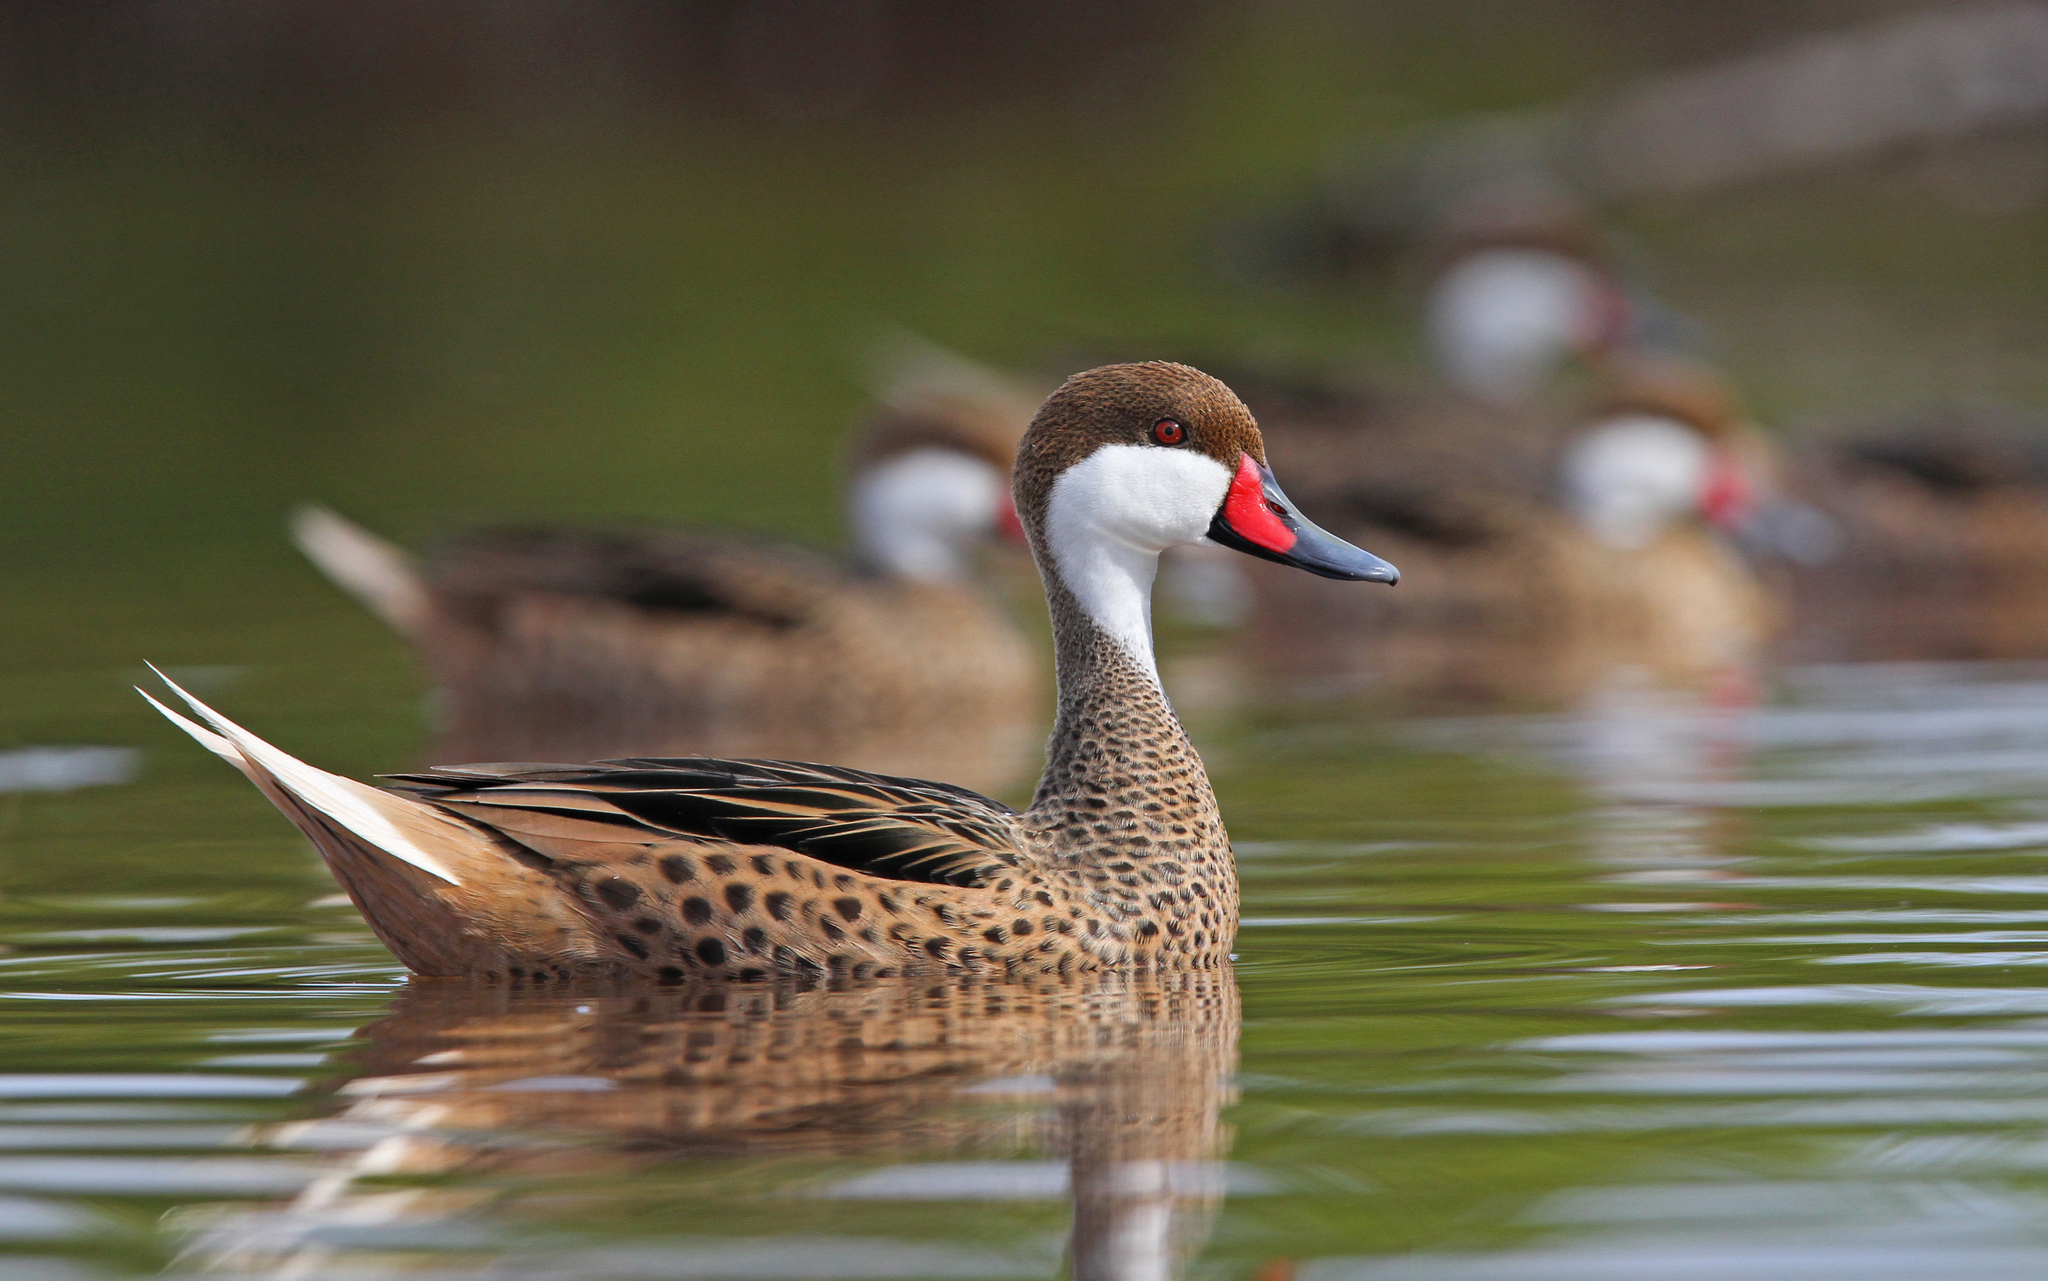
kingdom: Animalia
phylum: Chordata
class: Aves
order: Anseriformes
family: Anatidae
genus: Anas
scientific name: Anas bahamensis
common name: White-cheeked pintail
